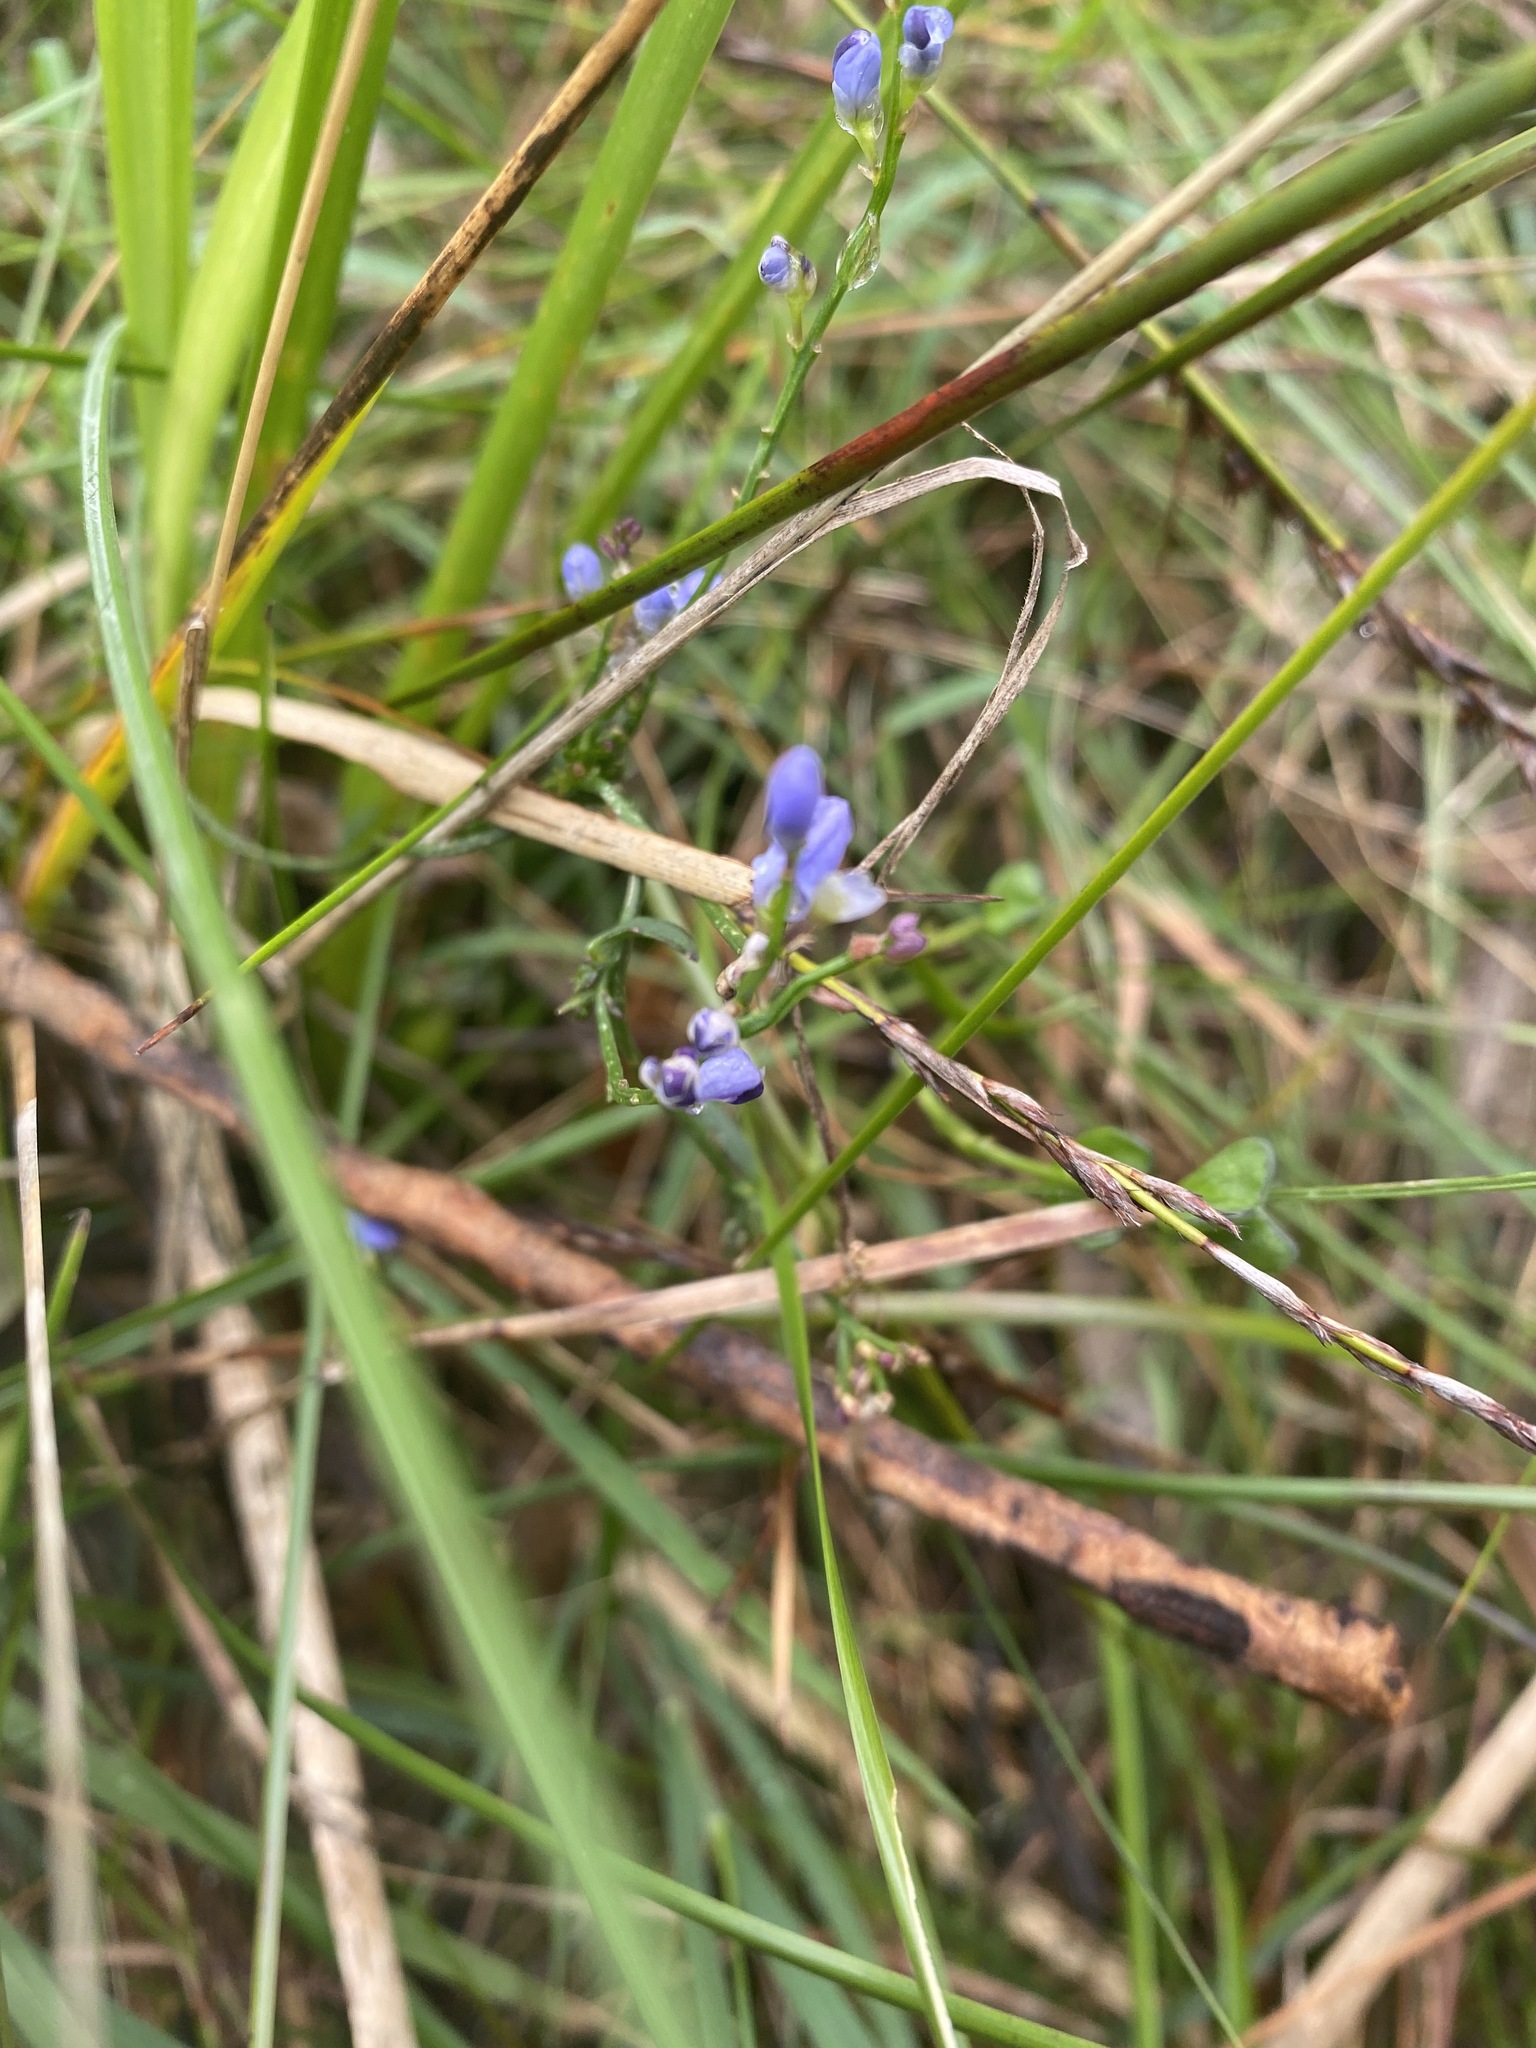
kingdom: Plantae
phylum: Tracheophyta
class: Magnoliopsida
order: Fabales
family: Polygalaceae
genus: Comesperma
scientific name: Comesperma volubile
